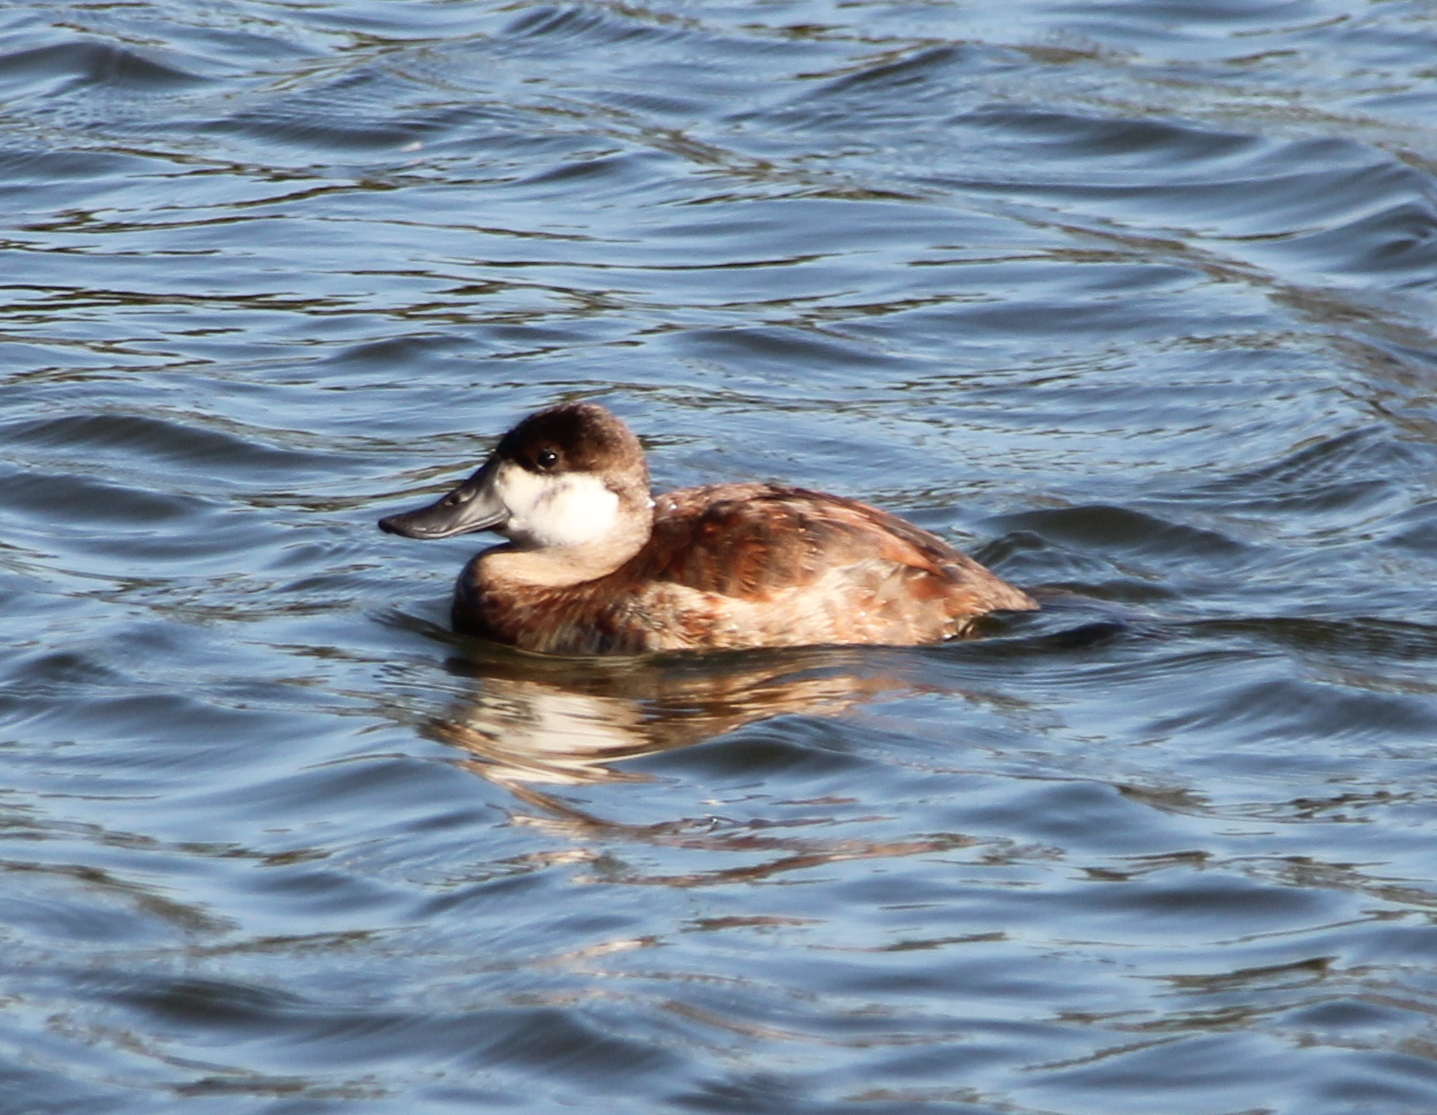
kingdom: Animalia
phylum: Chordata
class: Aves
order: Anseriformes
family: Anatidae
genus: Oxyura
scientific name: Oxyura jamaicensis
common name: Ruddy duck
